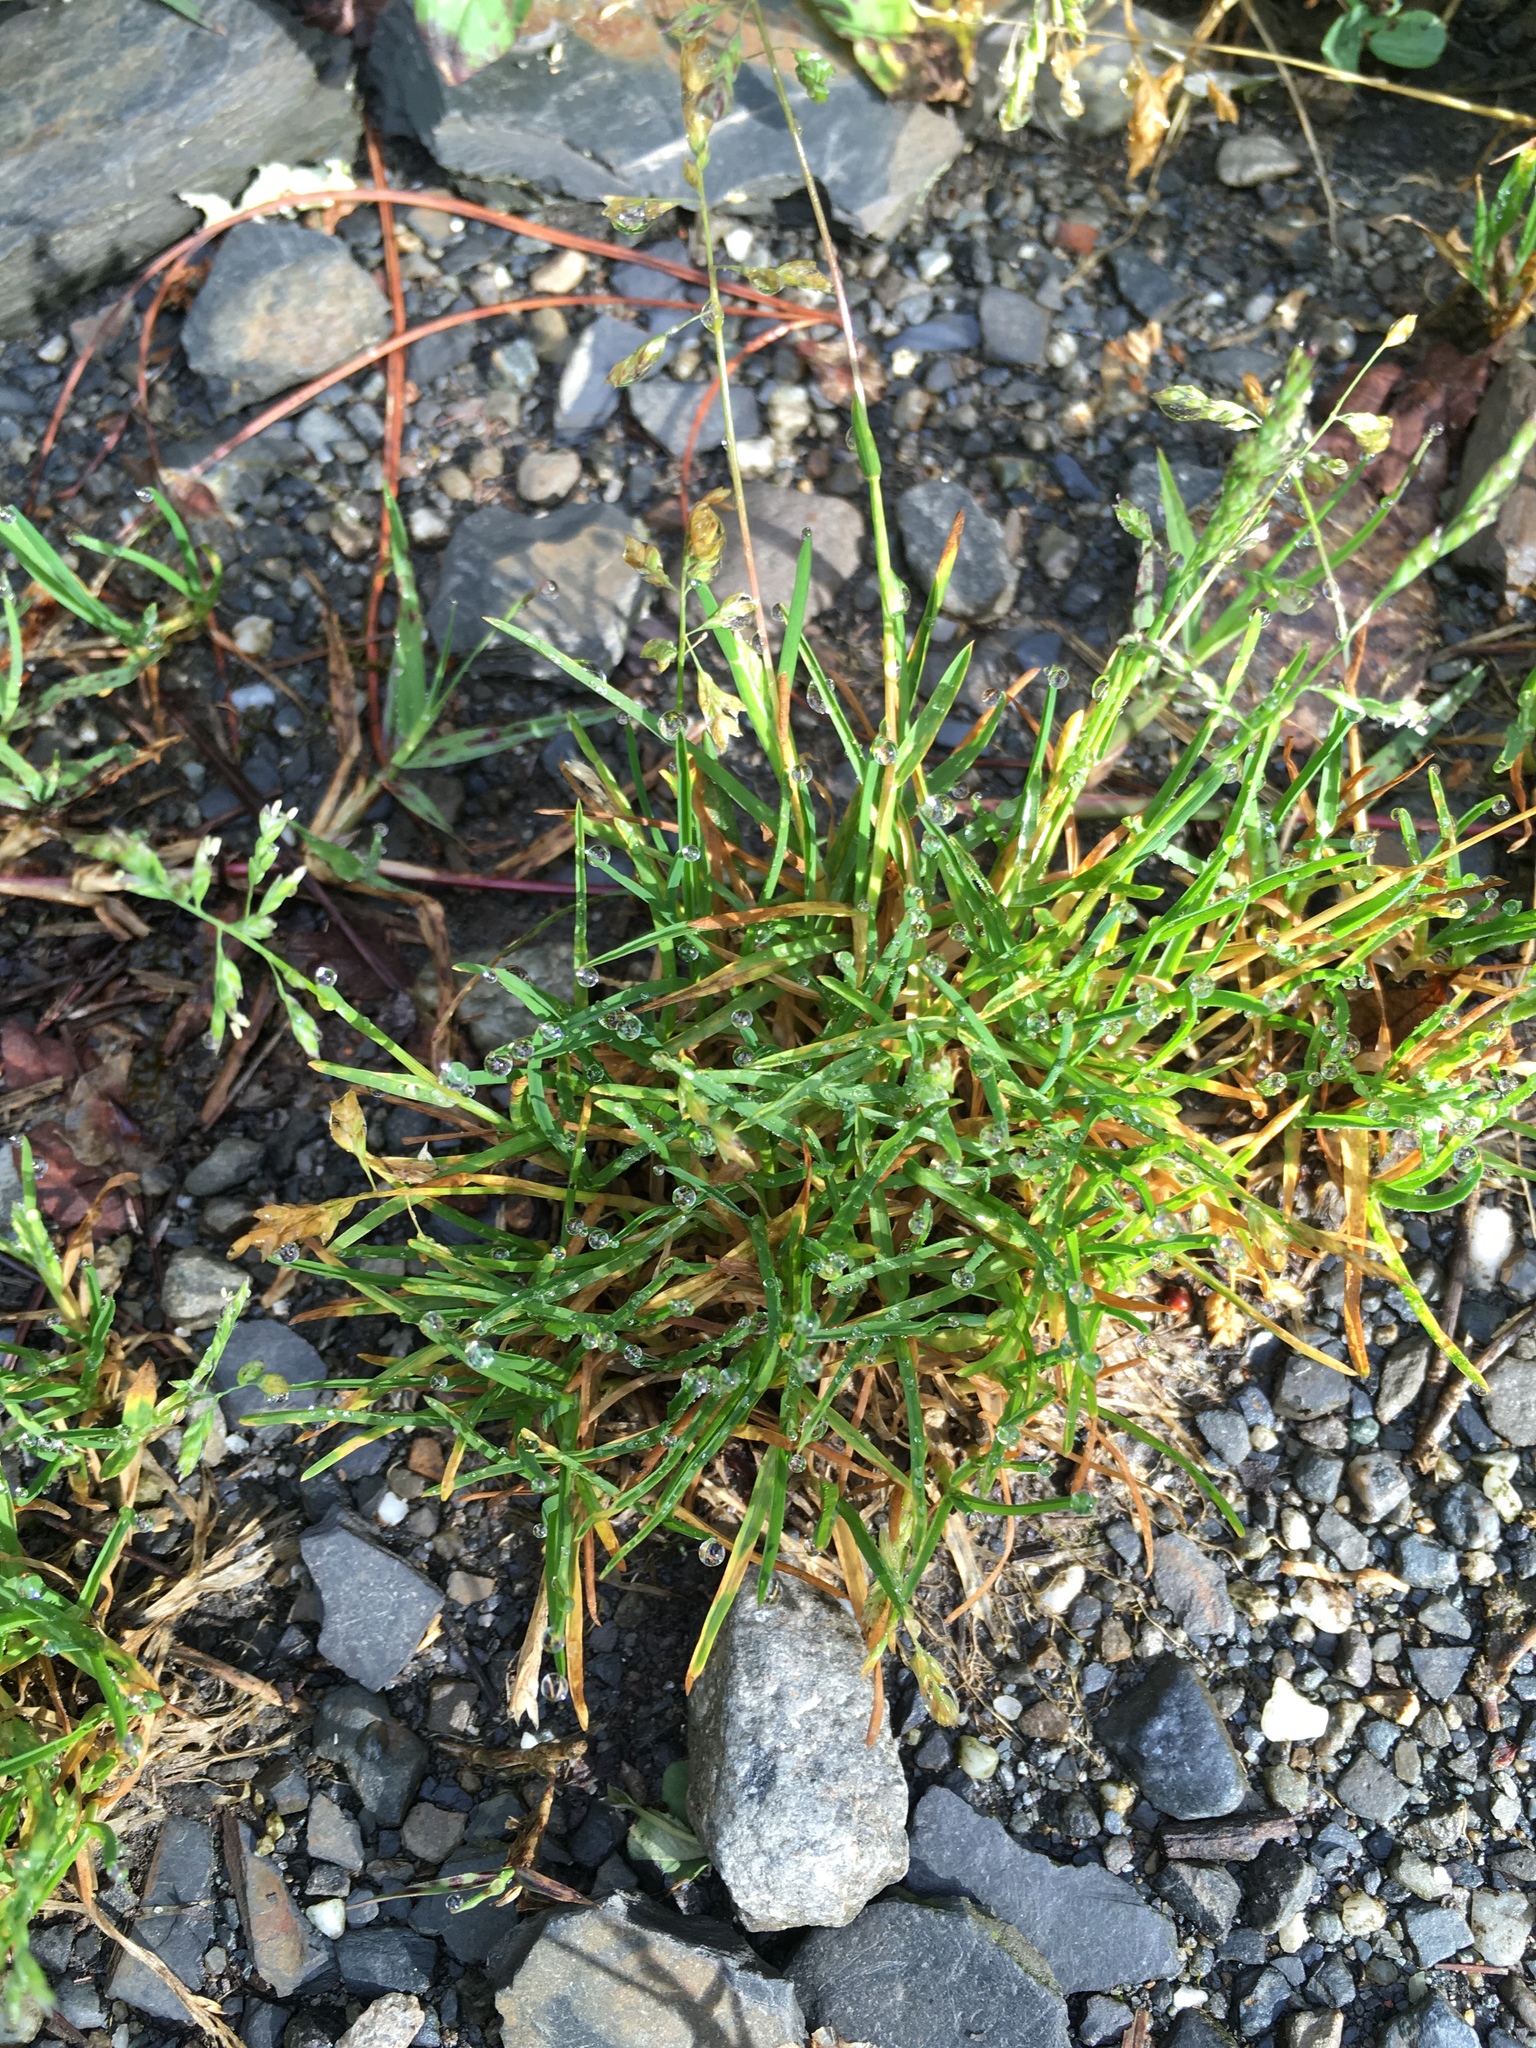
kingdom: Plantae
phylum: Tracheophyta
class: Liliopsida
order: Poales
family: Poaceae
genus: Poa
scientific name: Poa annua
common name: Annual bluegrass
